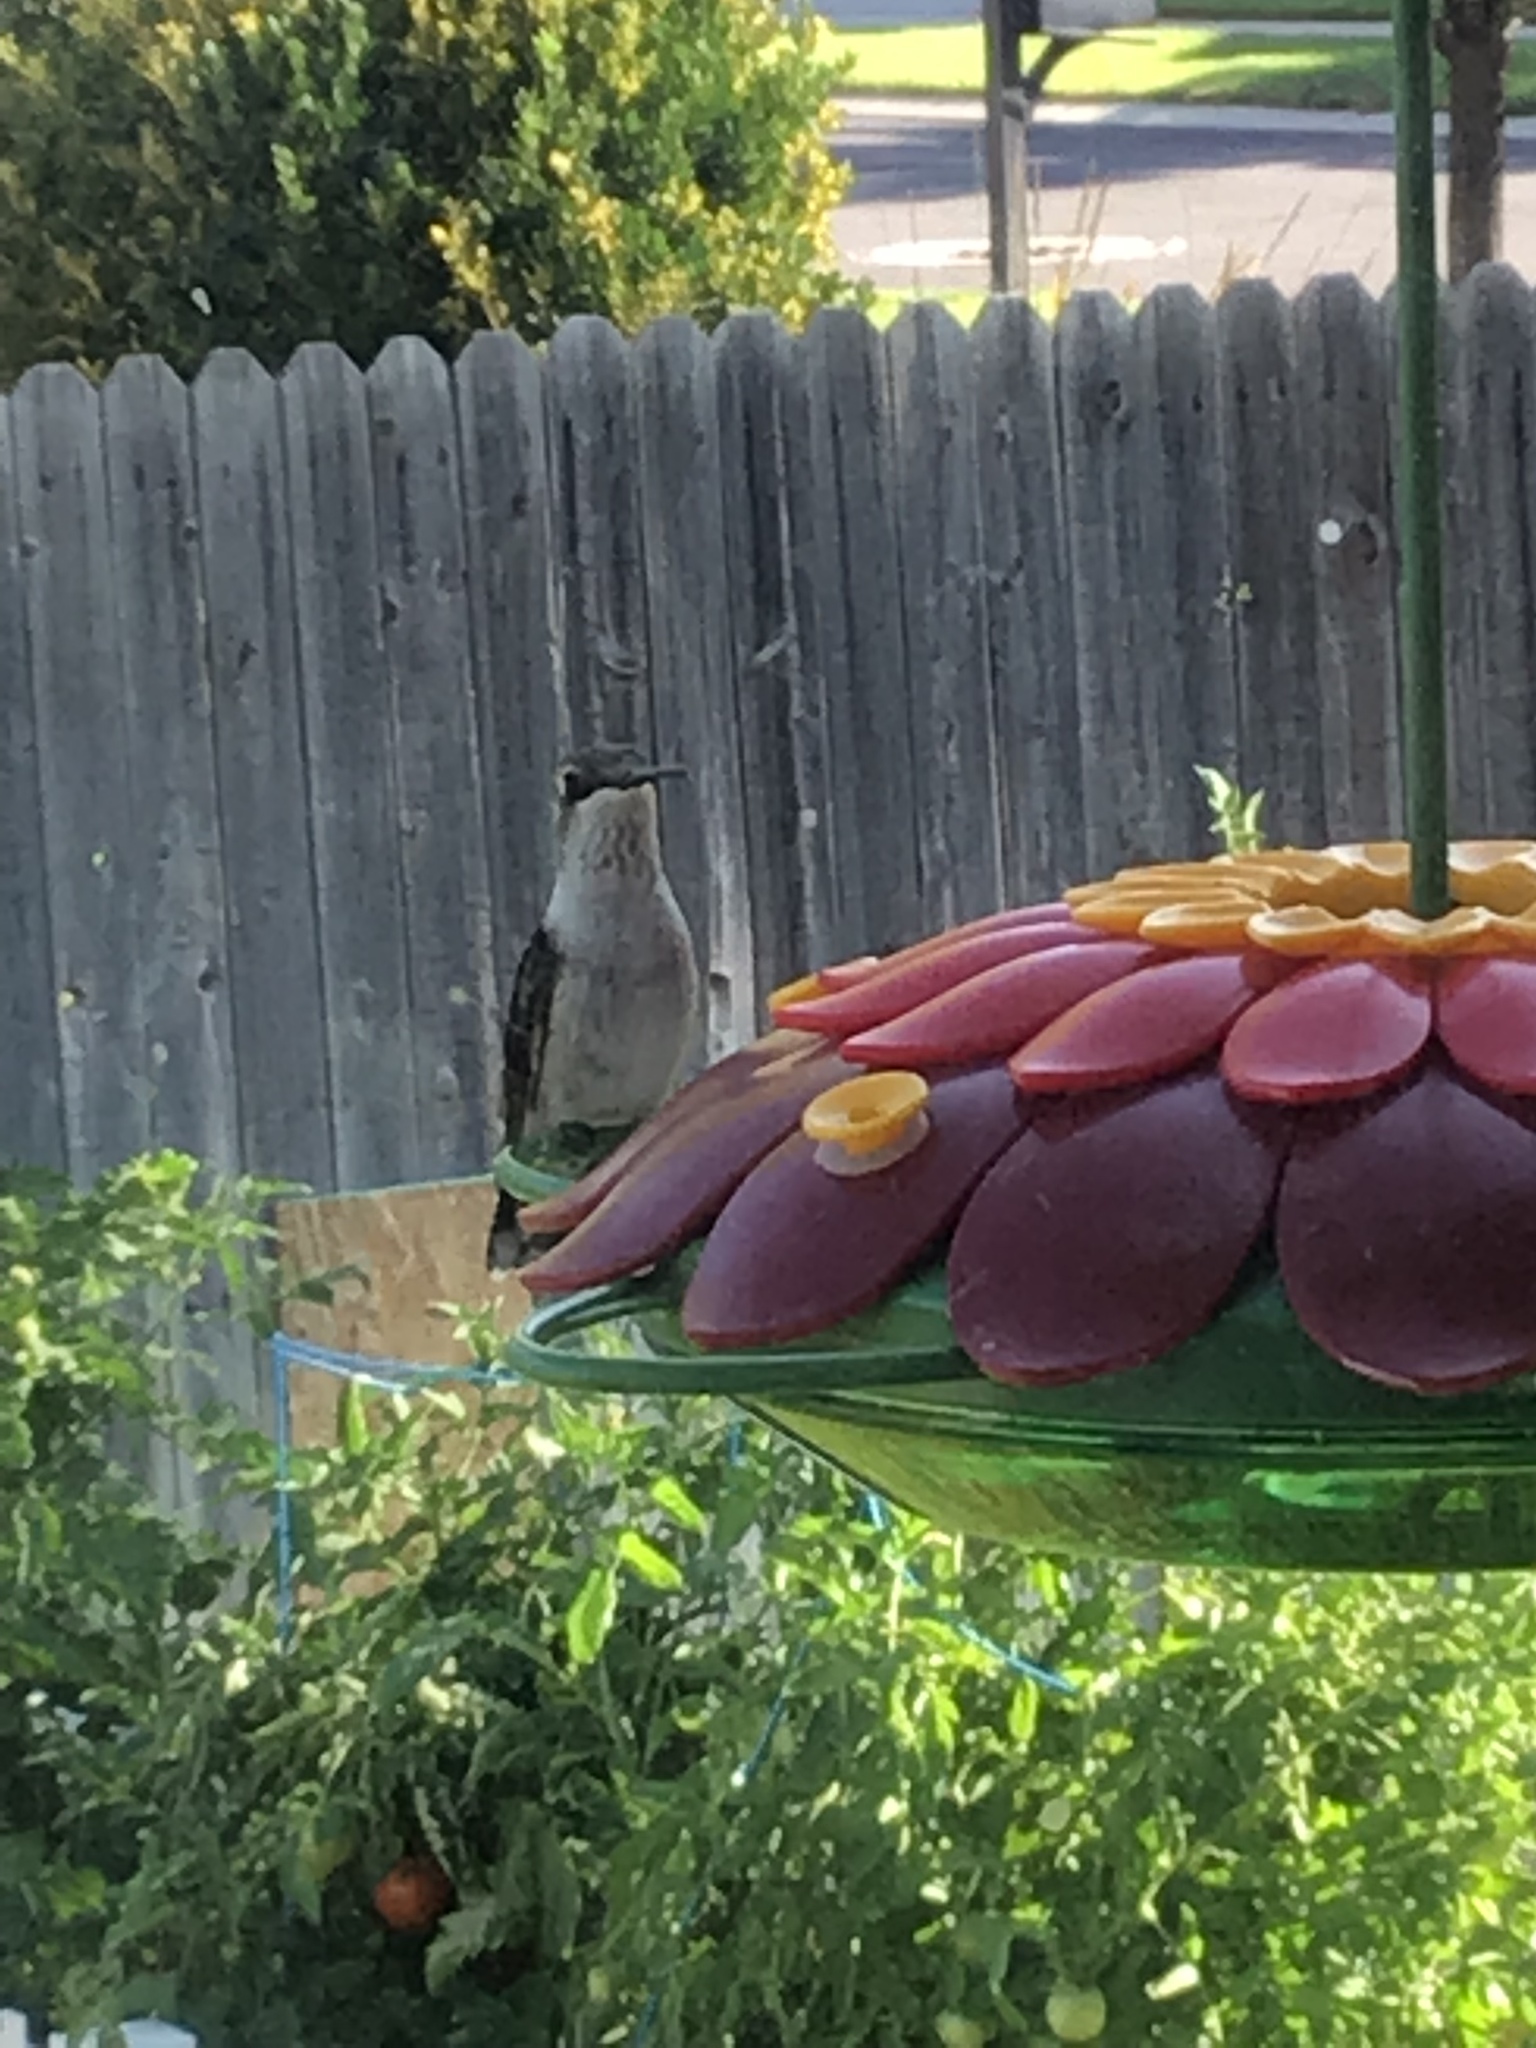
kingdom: Animalia
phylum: Chordata
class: Aves
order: Apodiformes
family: Trochilidae
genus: Archilochus
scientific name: Archilochus alexandri
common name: Black-chinned hummingbird
